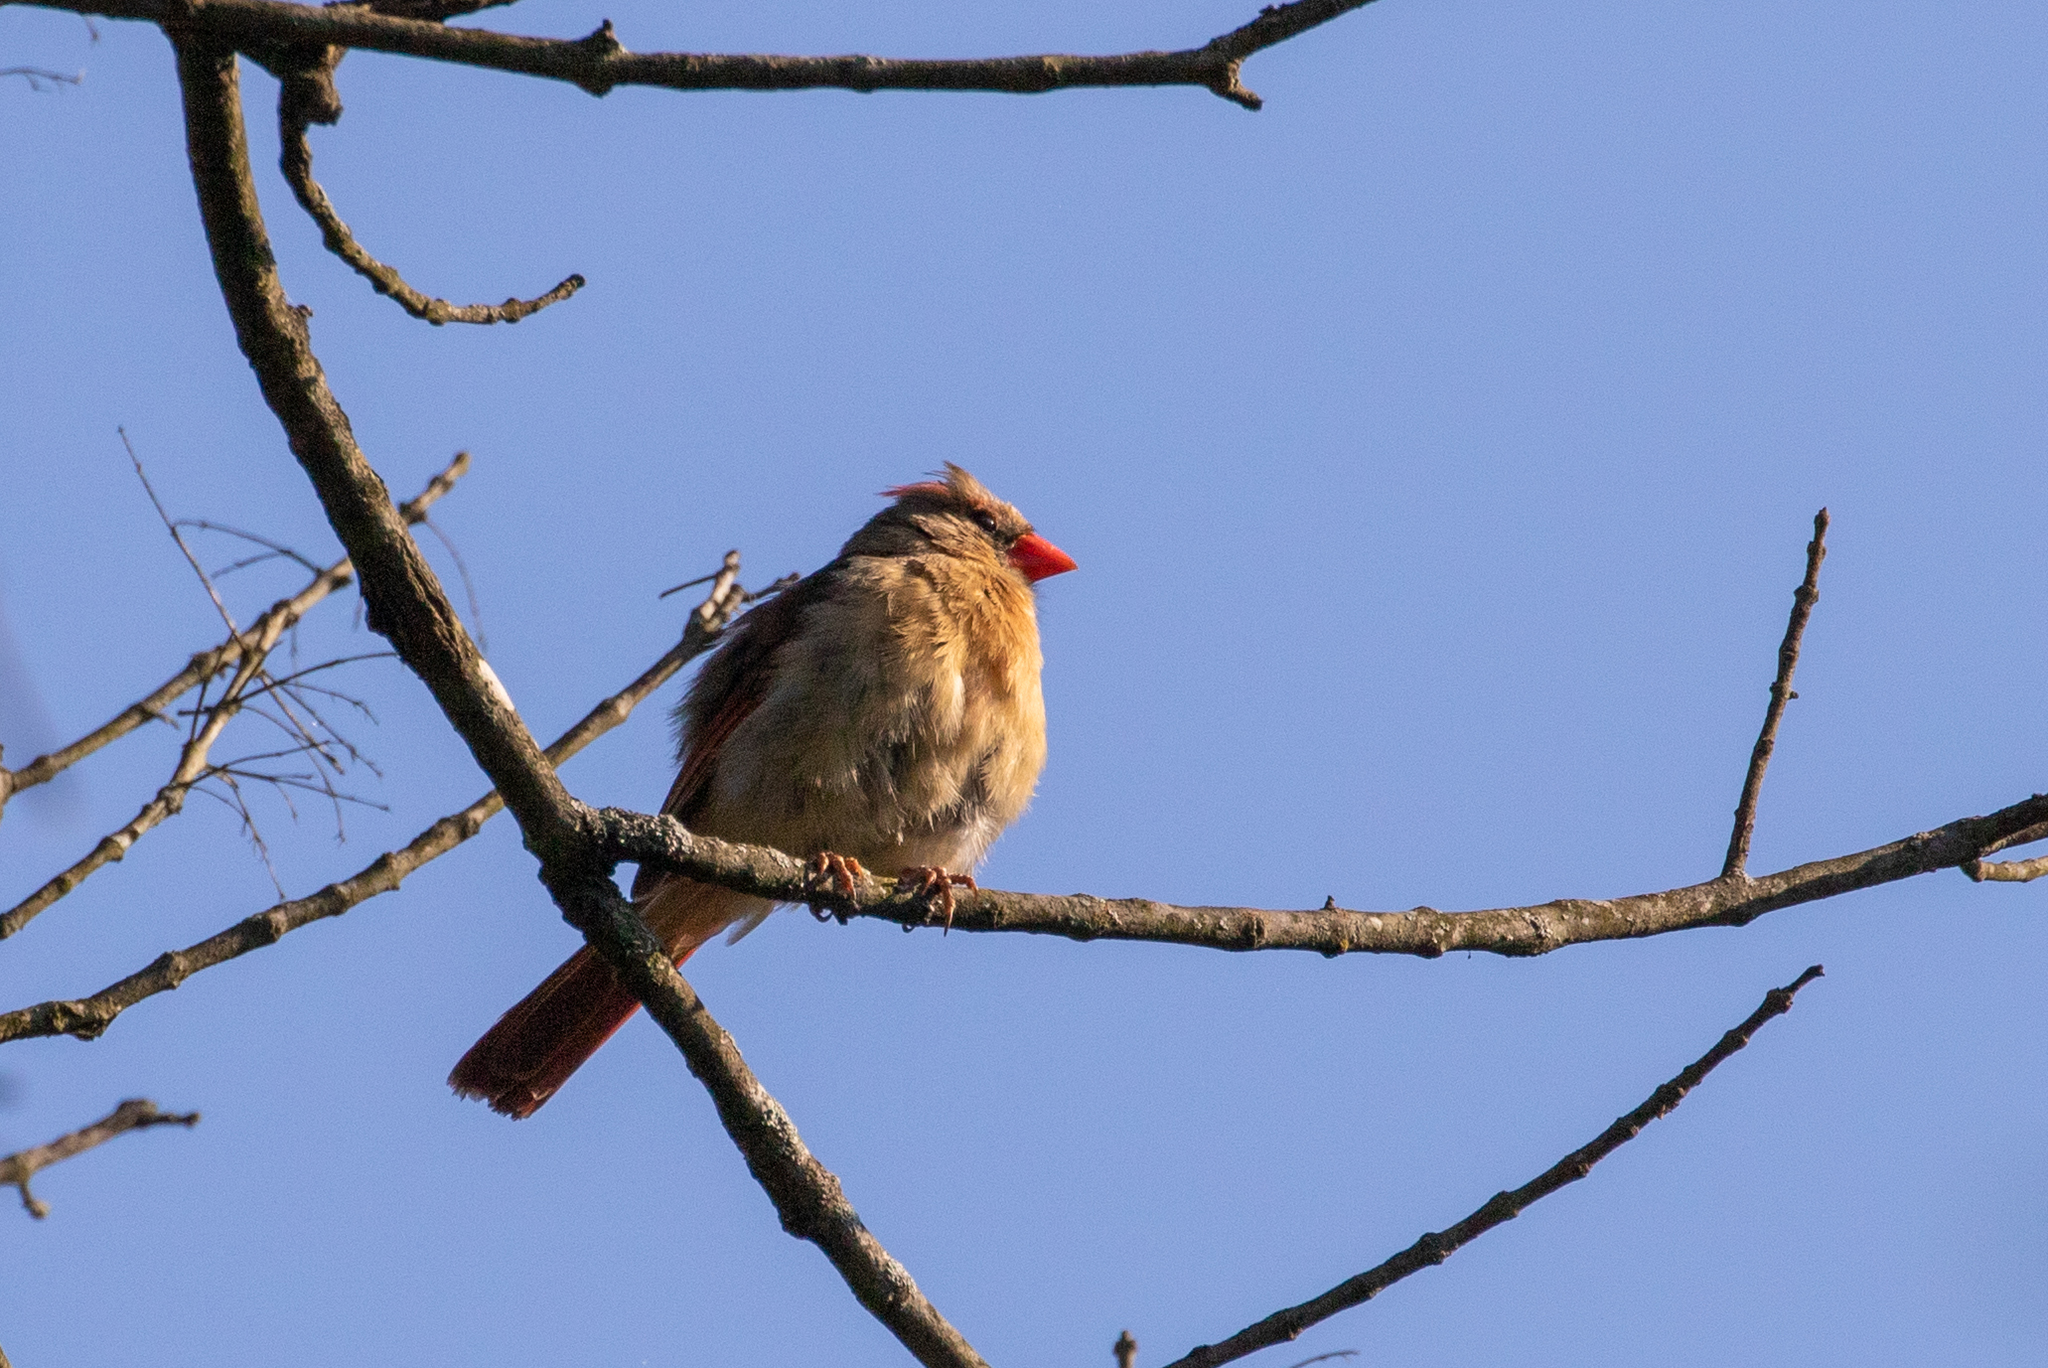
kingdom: Animalia
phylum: Chordata
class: Aves
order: Passeriformes
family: Cardinalidae
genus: Cardinalis
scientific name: Cardinalis cardinalis
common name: Northern cardinal
